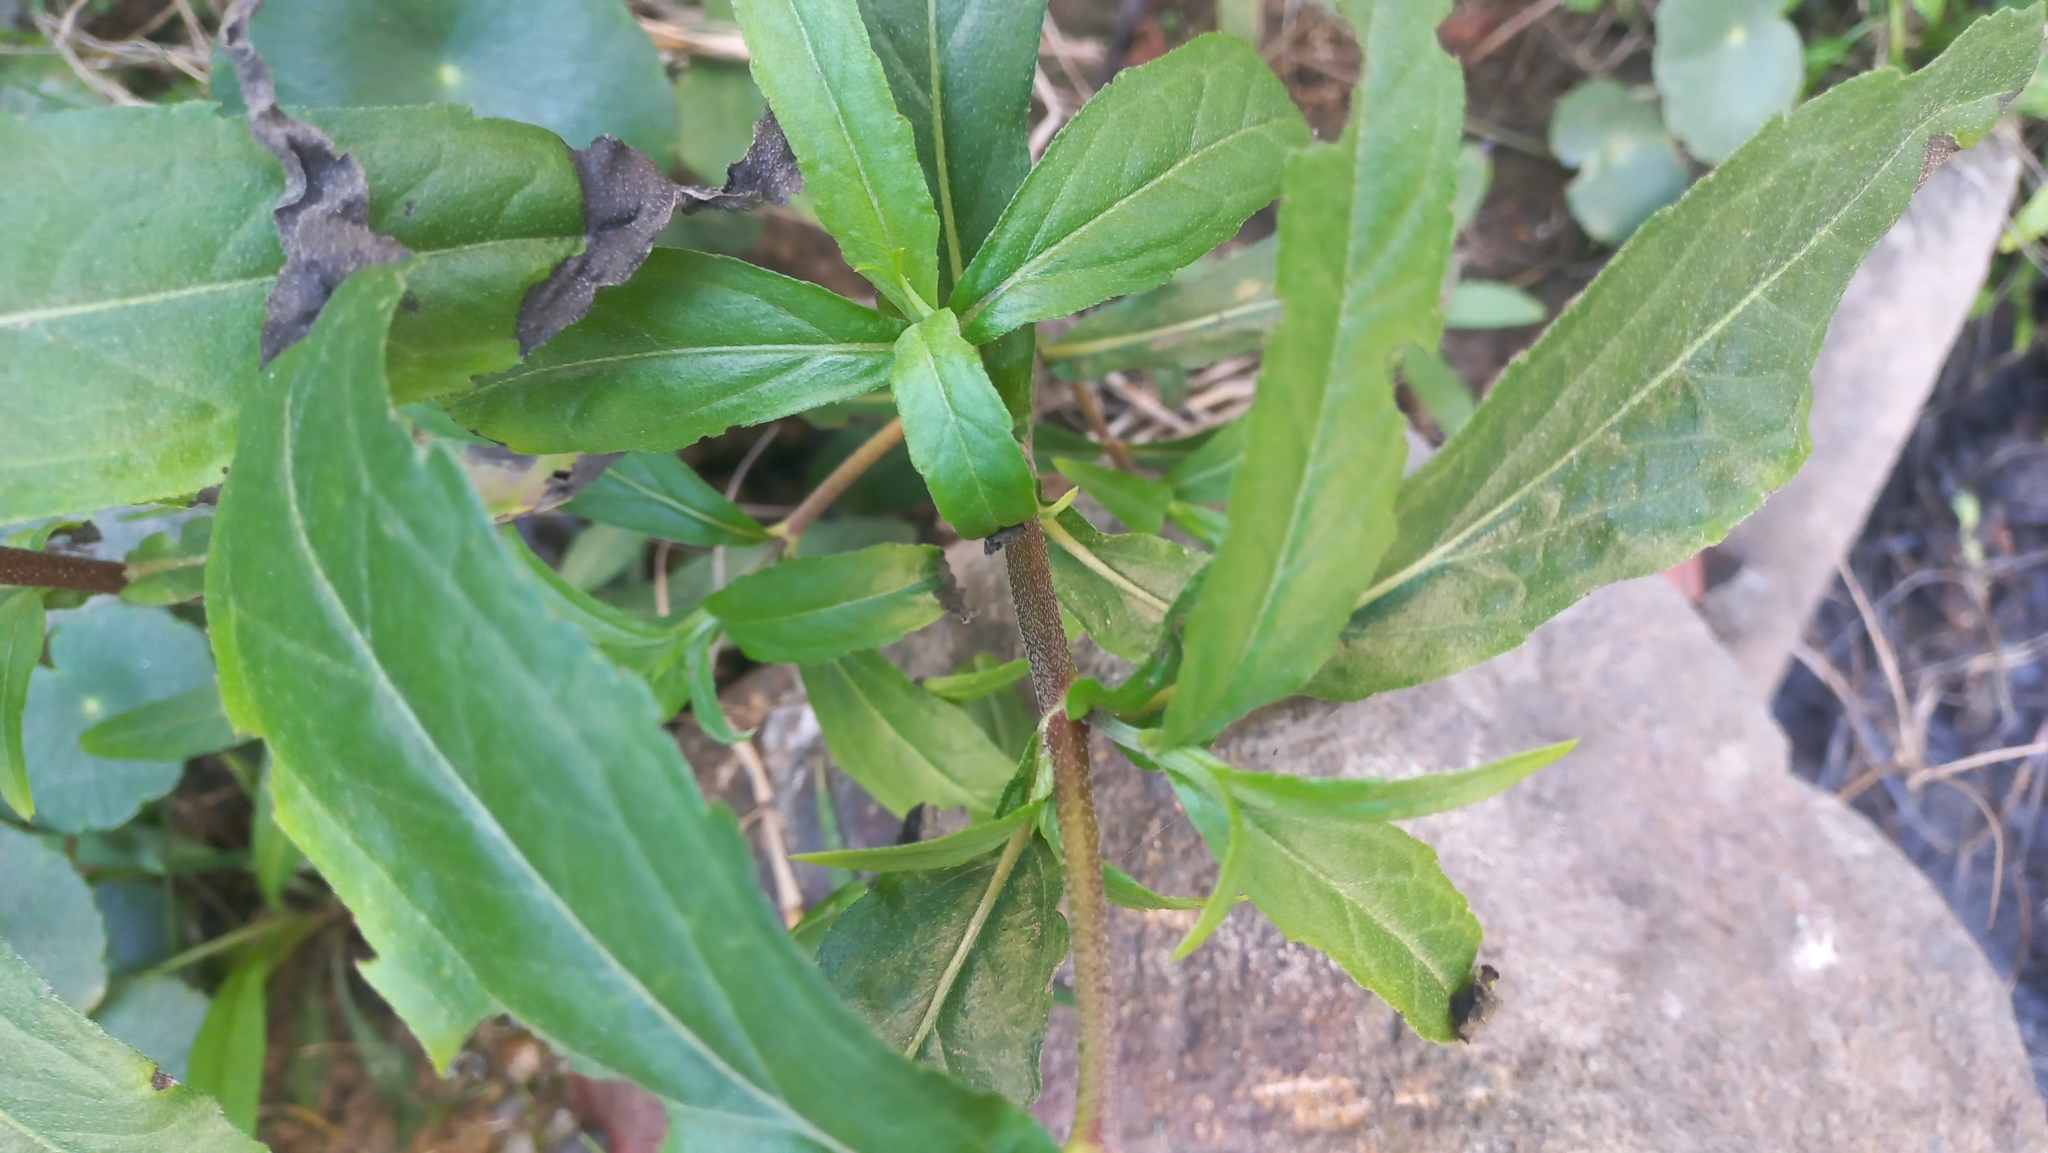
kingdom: Plantae
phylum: Tracheophyta
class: Magnoliopsida
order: Asterales
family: Asteraceae
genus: Eclipta
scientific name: Eclipta prostrata
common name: False daisy
